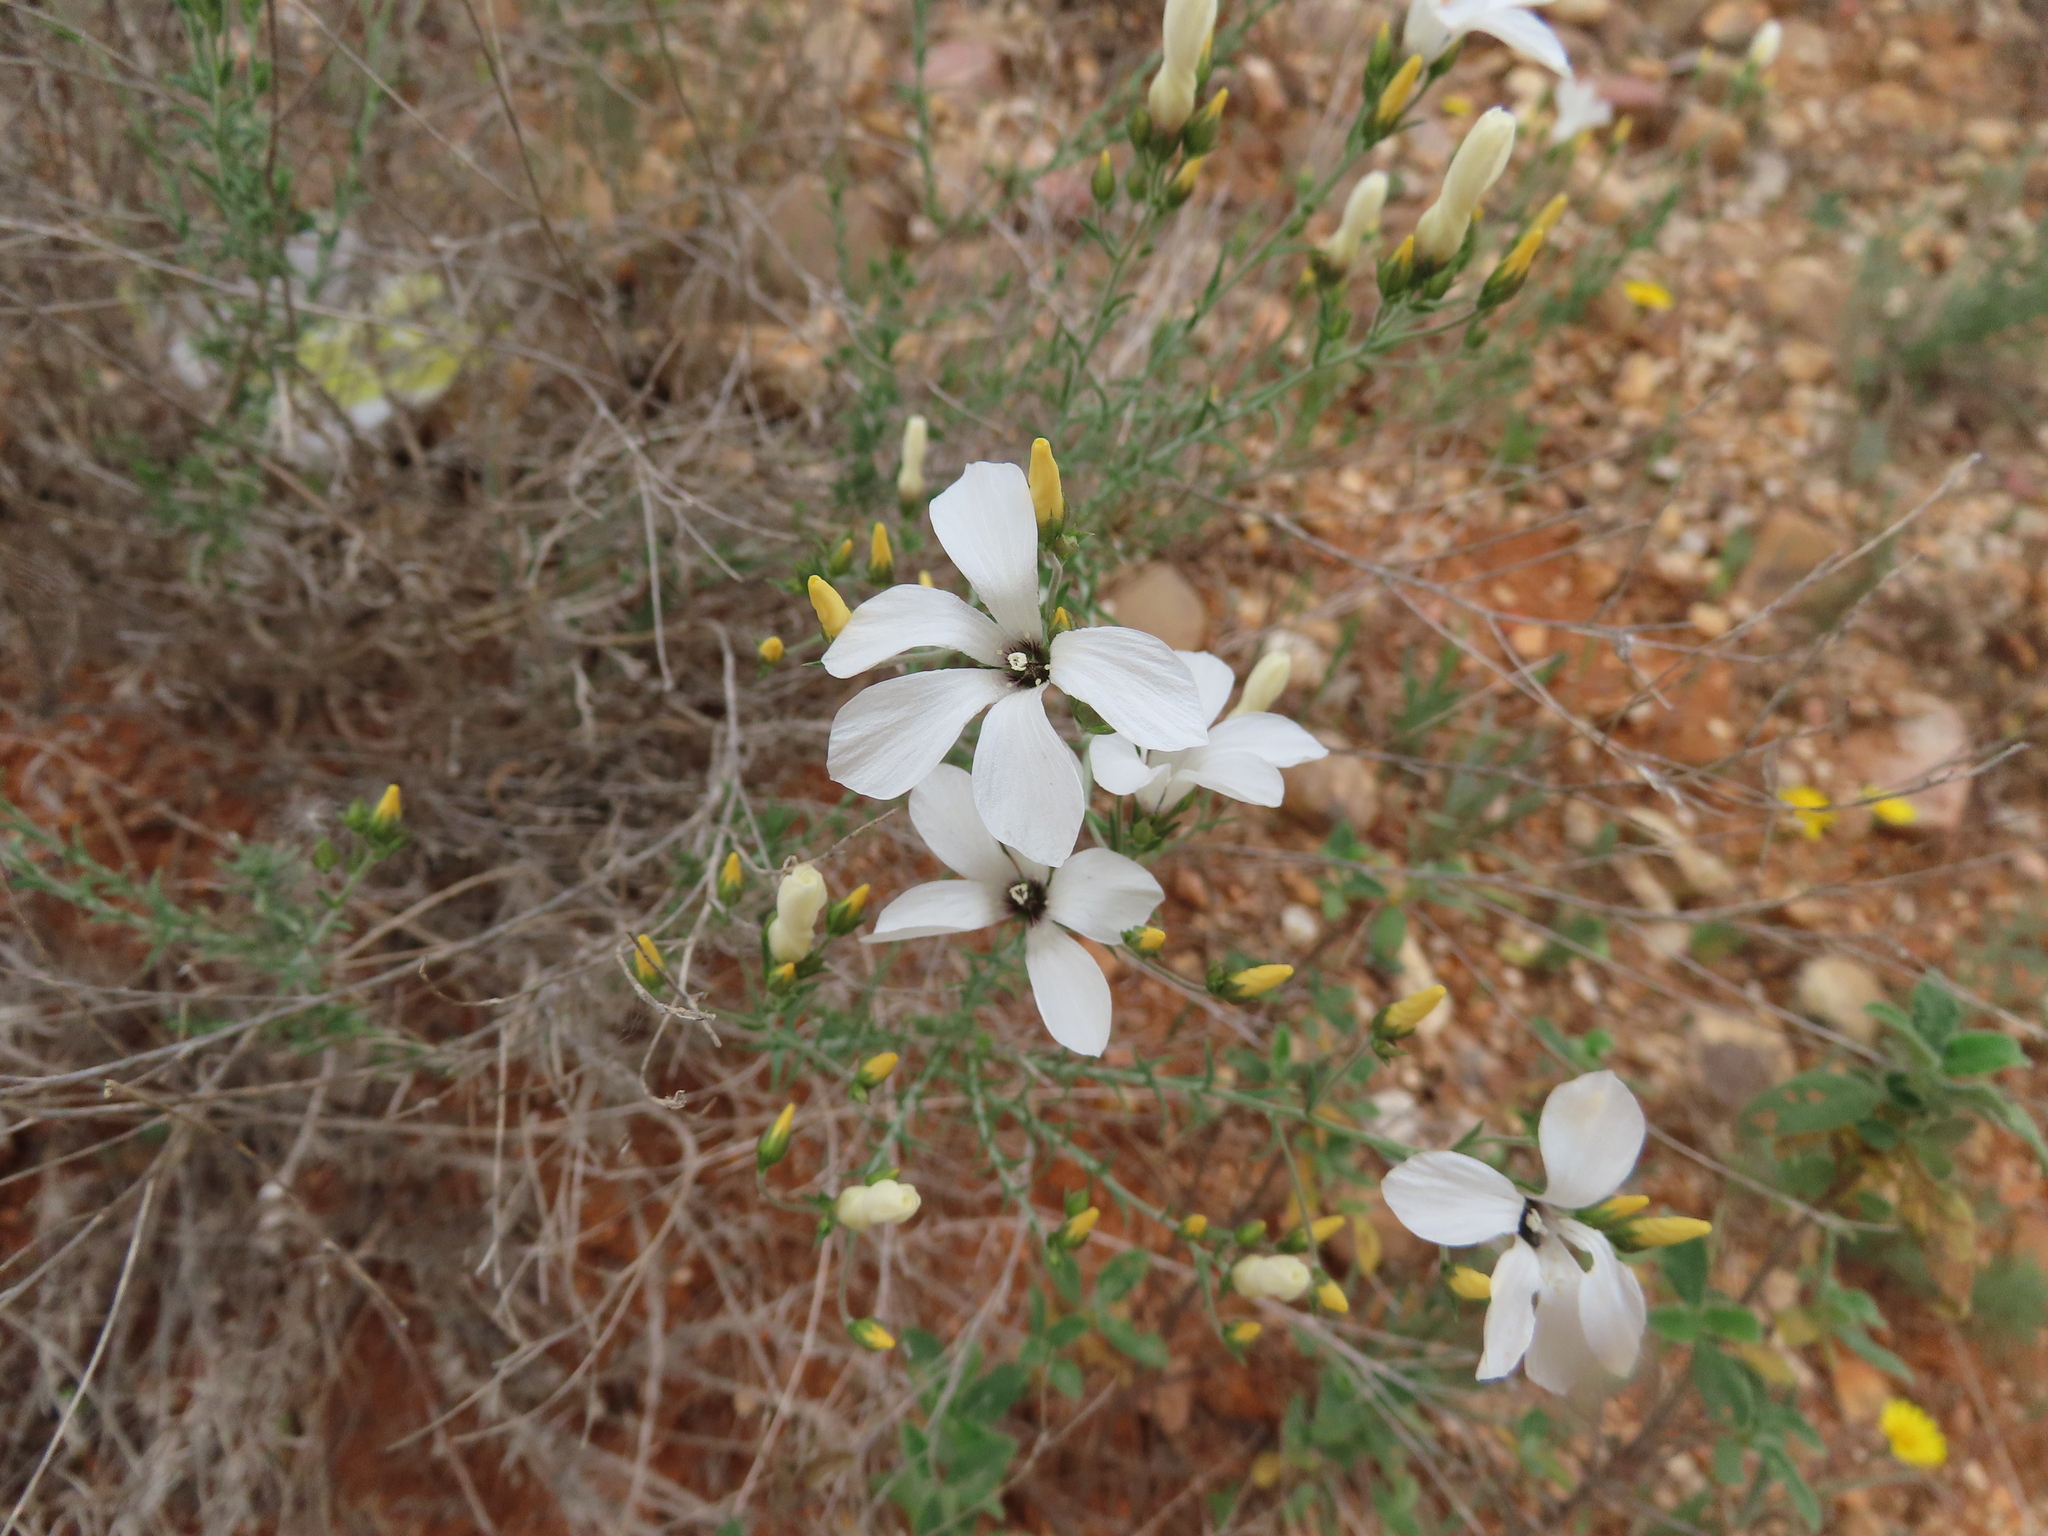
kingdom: Plantae
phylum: Tracheophyta
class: Magnoliopsida
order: Malpighiales
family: Linaceae
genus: Linum
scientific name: Linum suffruticosum
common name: White flax
